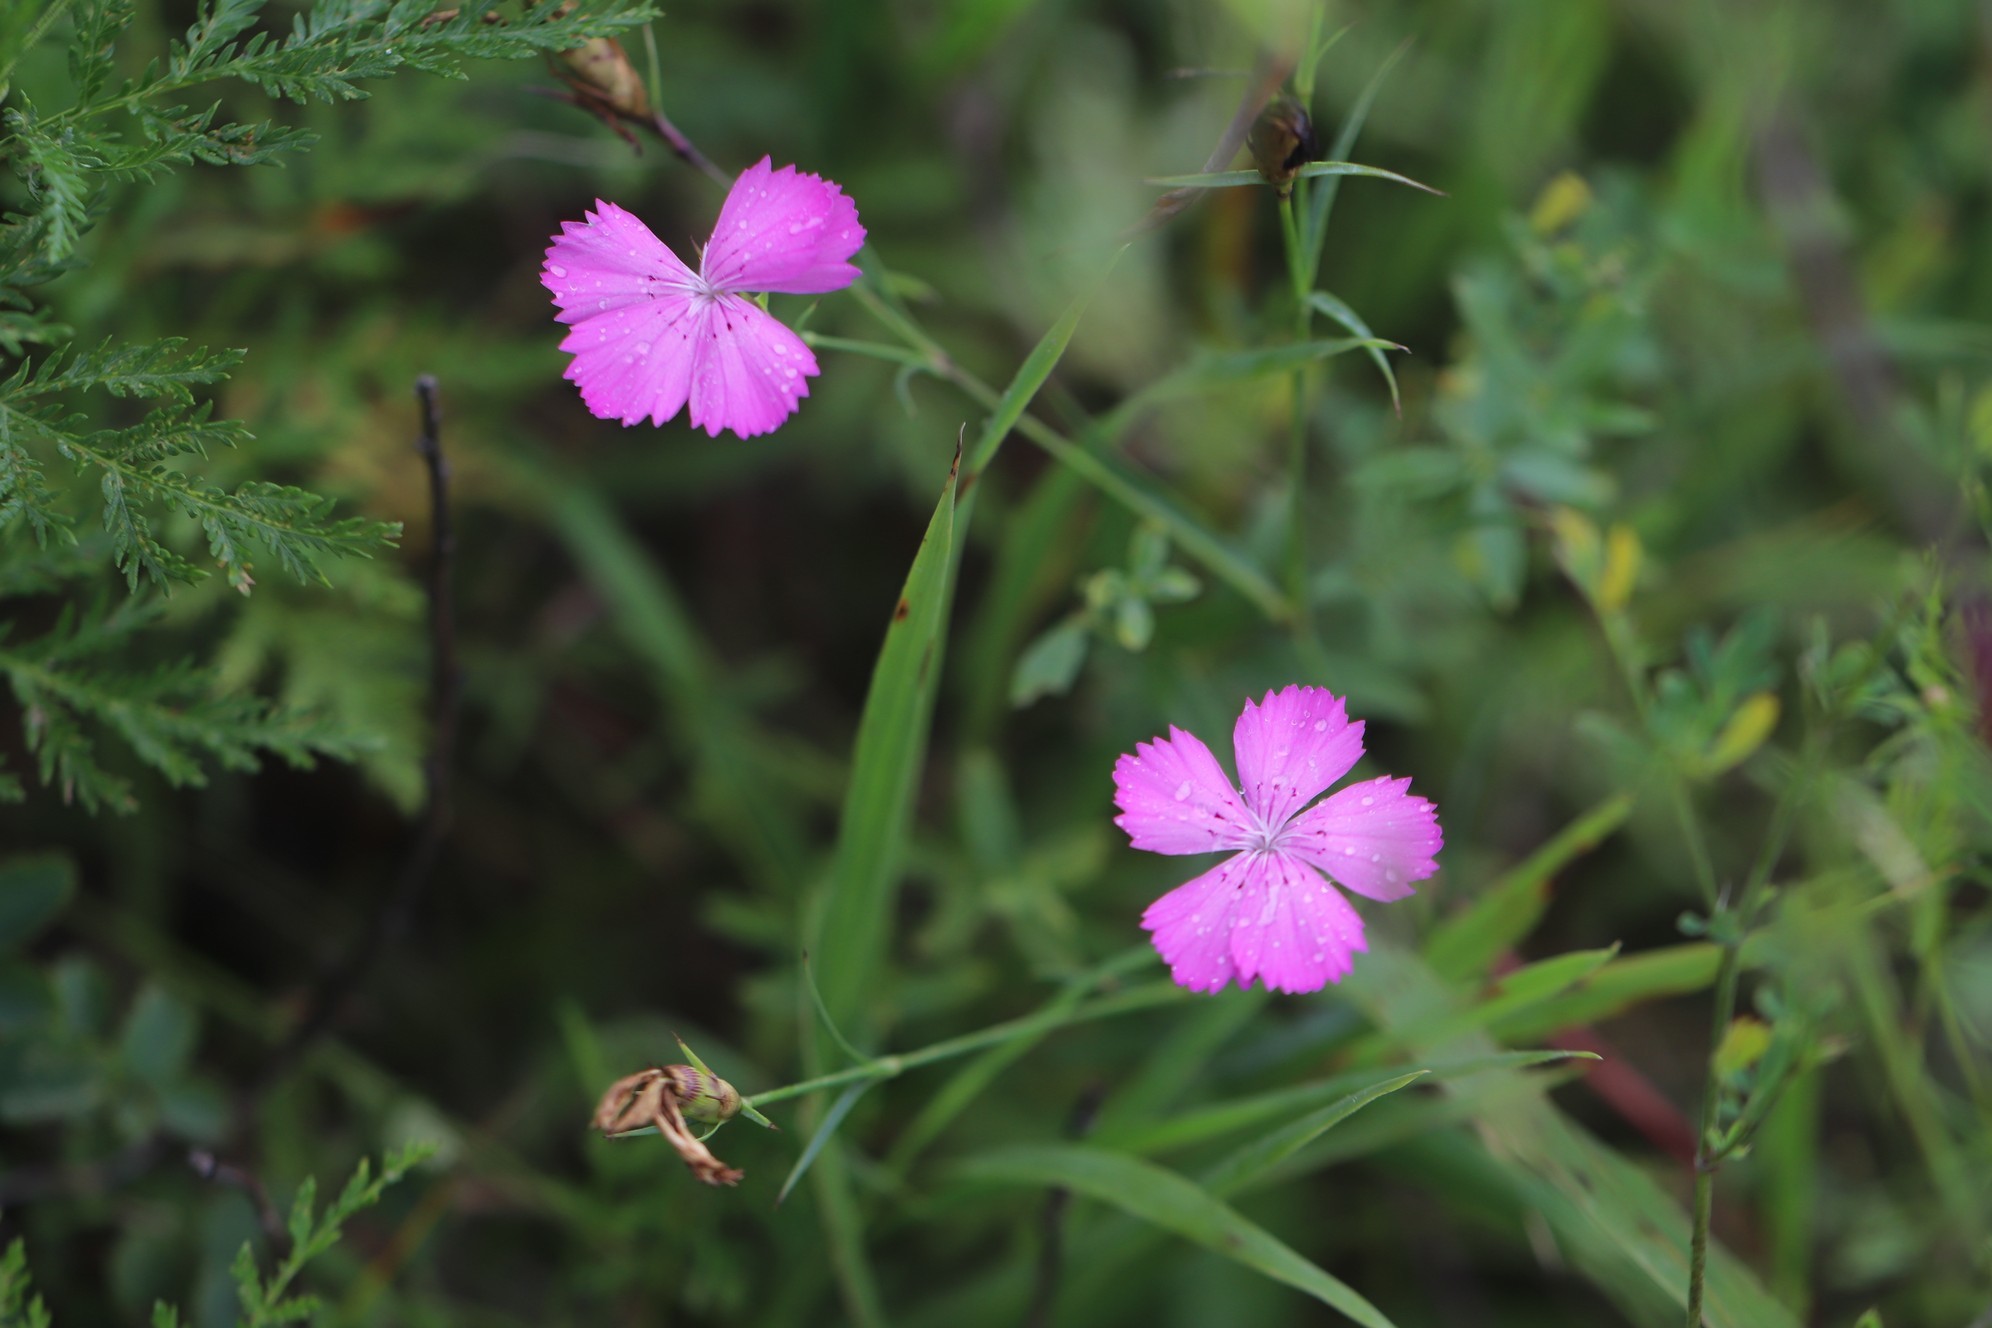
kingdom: Plantae
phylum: Tracheophyta
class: Magnoliopsida
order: Caryophyllales
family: Caryophyllaceae
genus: Dianthus
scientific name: Dianthus chinensis
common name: Rainbow pink
